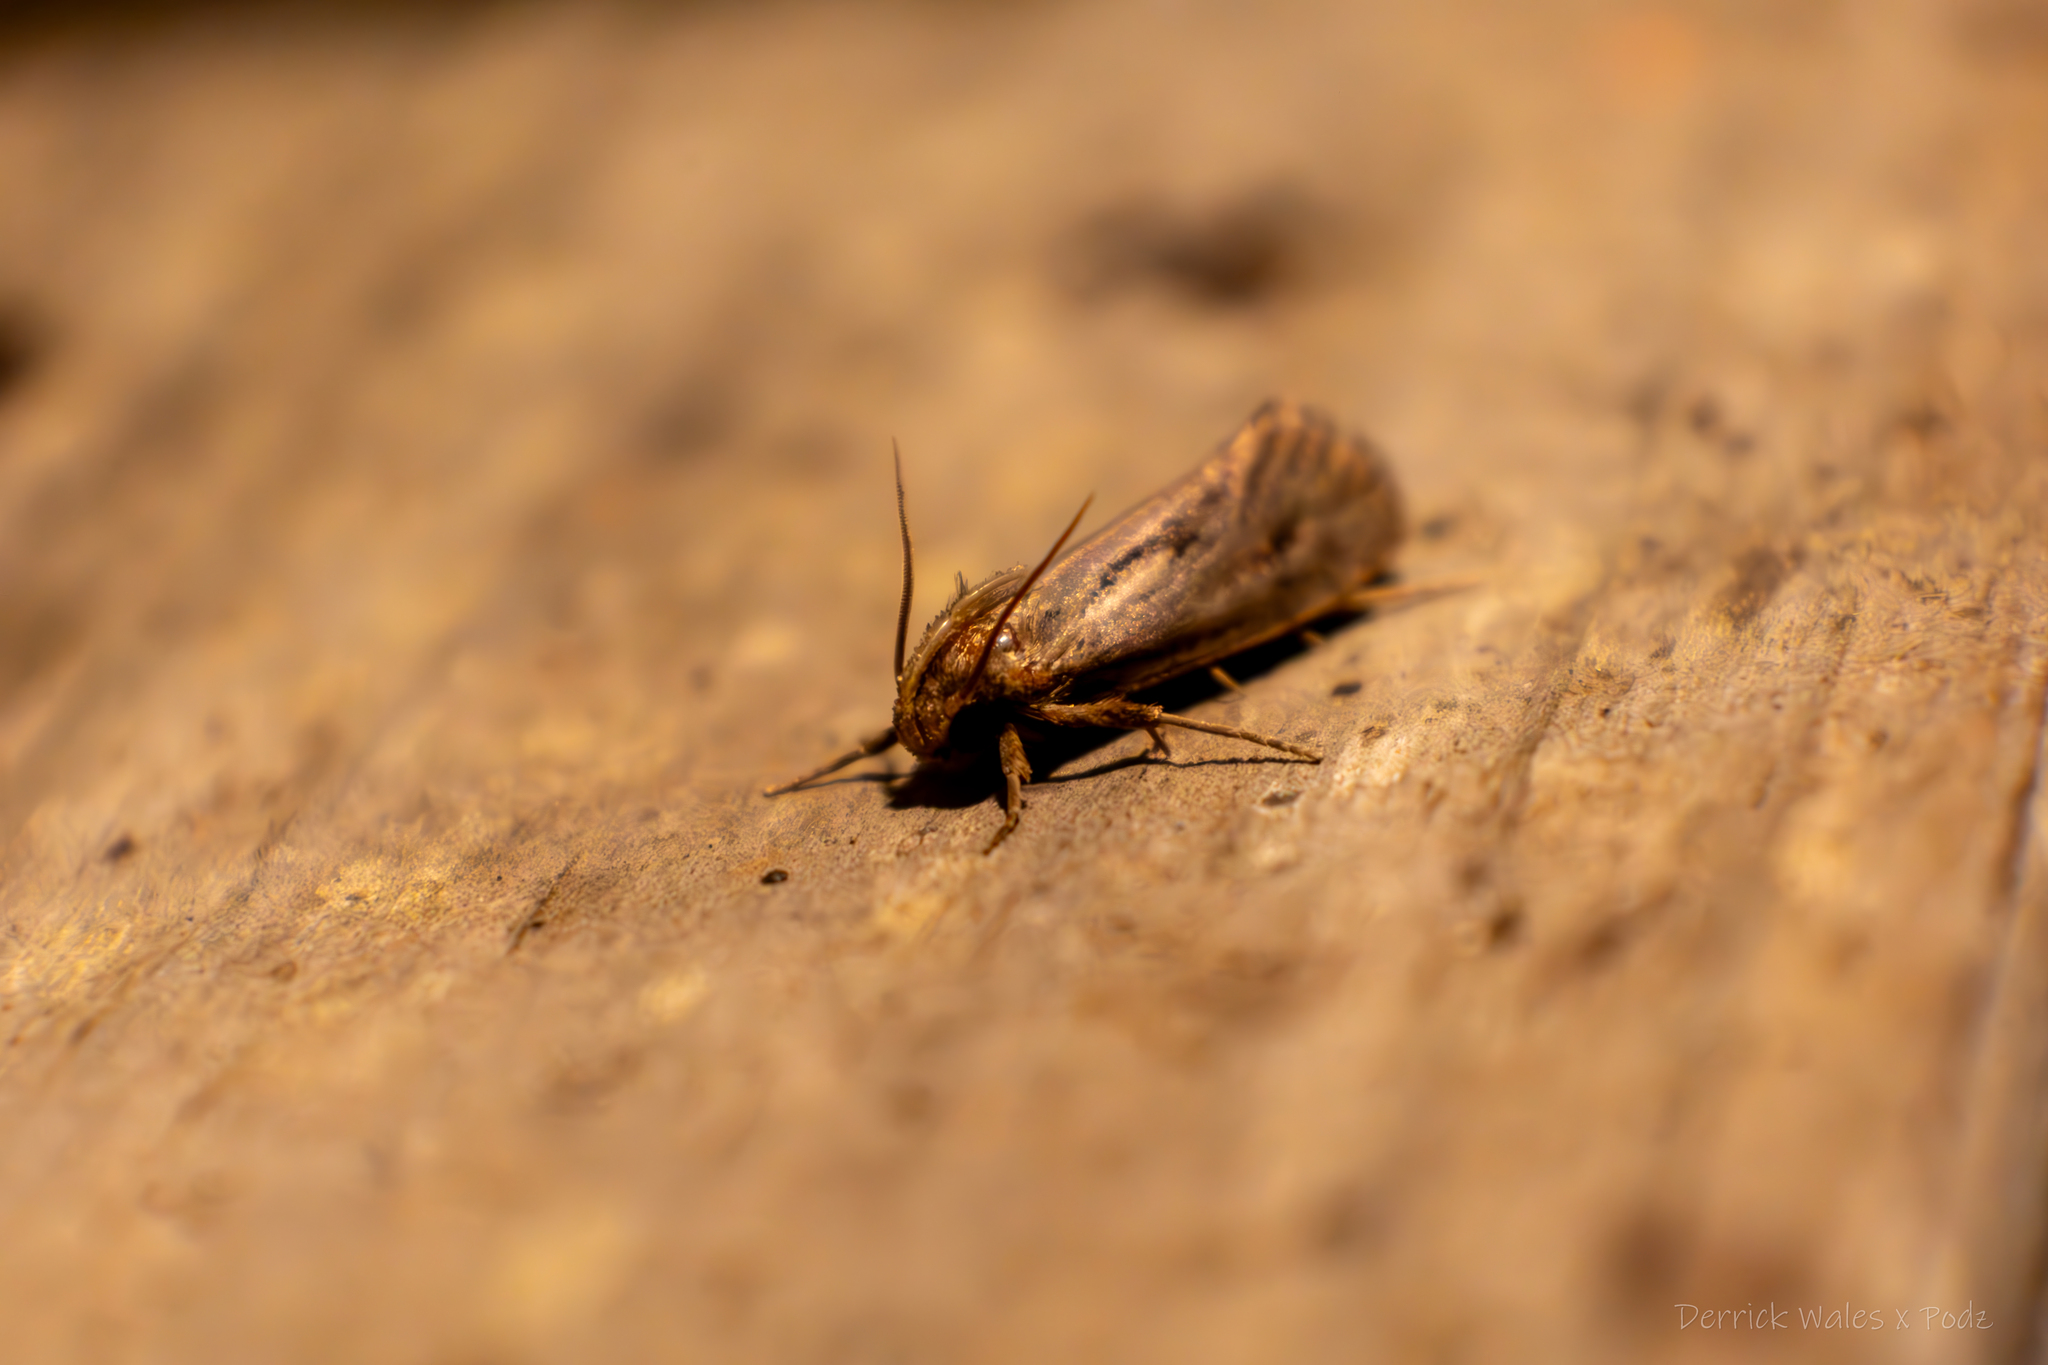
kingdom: Animalia
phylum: Arthropoda
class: Insecta
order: Lepidoptera
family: Tineidae
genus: Acrolophus
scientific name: Acrolophus popeanella
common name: Clemens' grass tubeworm moth
